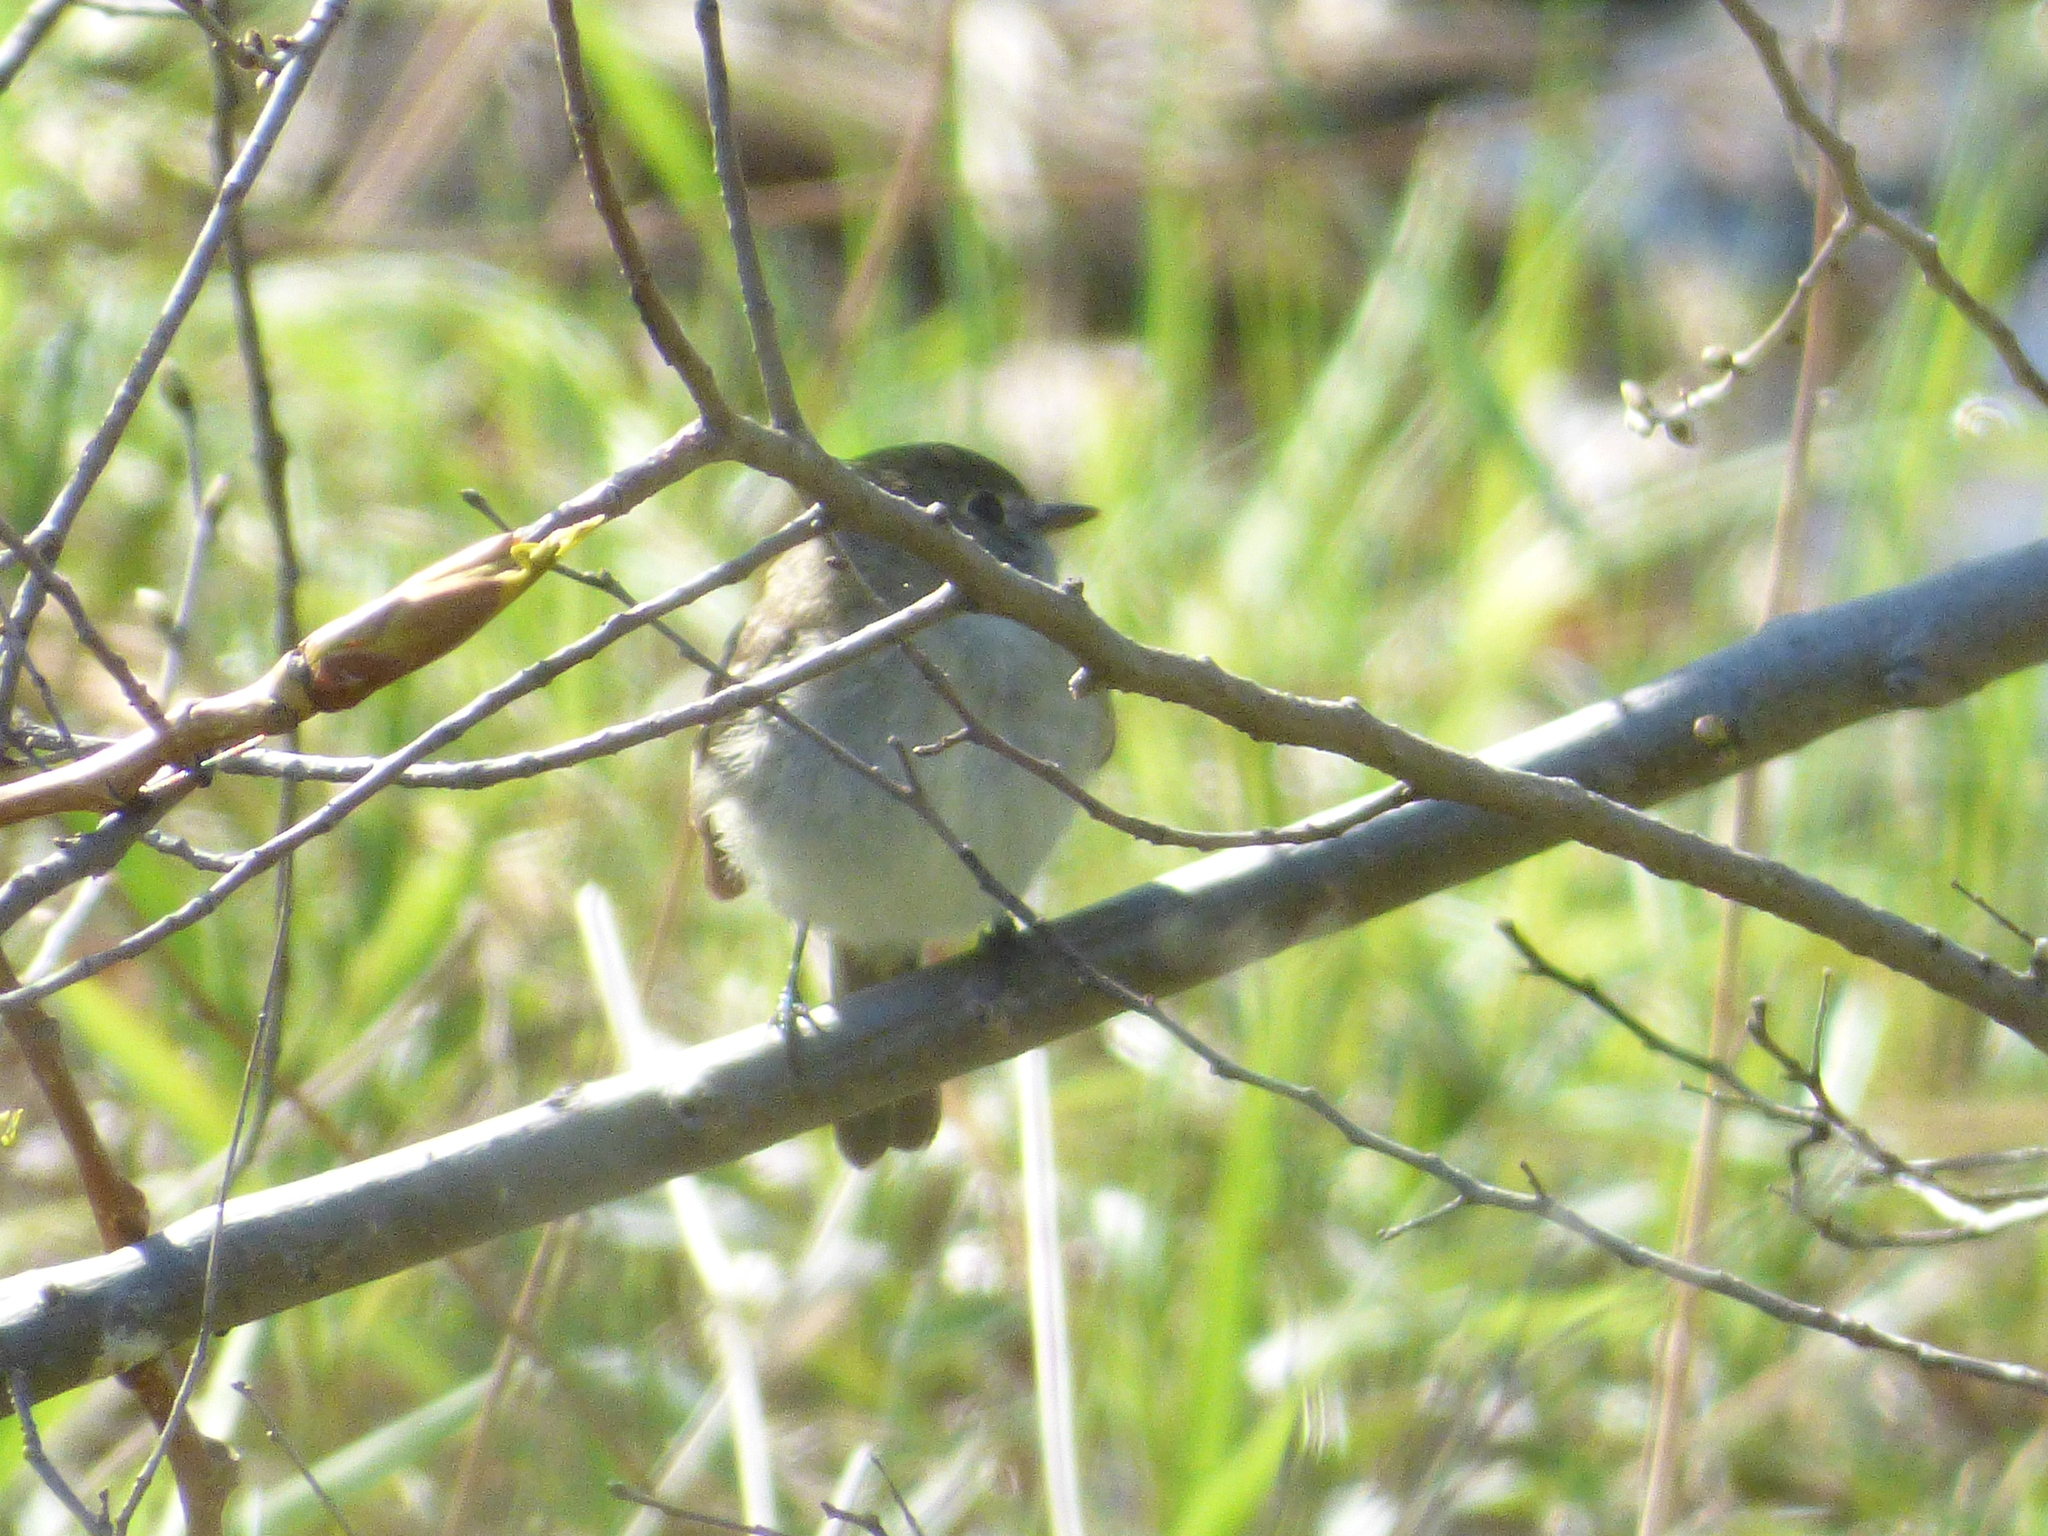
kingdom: Animalia
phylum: Chordata
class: Aves
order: Passeriformes
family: Tyrannidae
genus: Empidonax
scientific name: Empidonax minimus
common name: Least flycatcher
